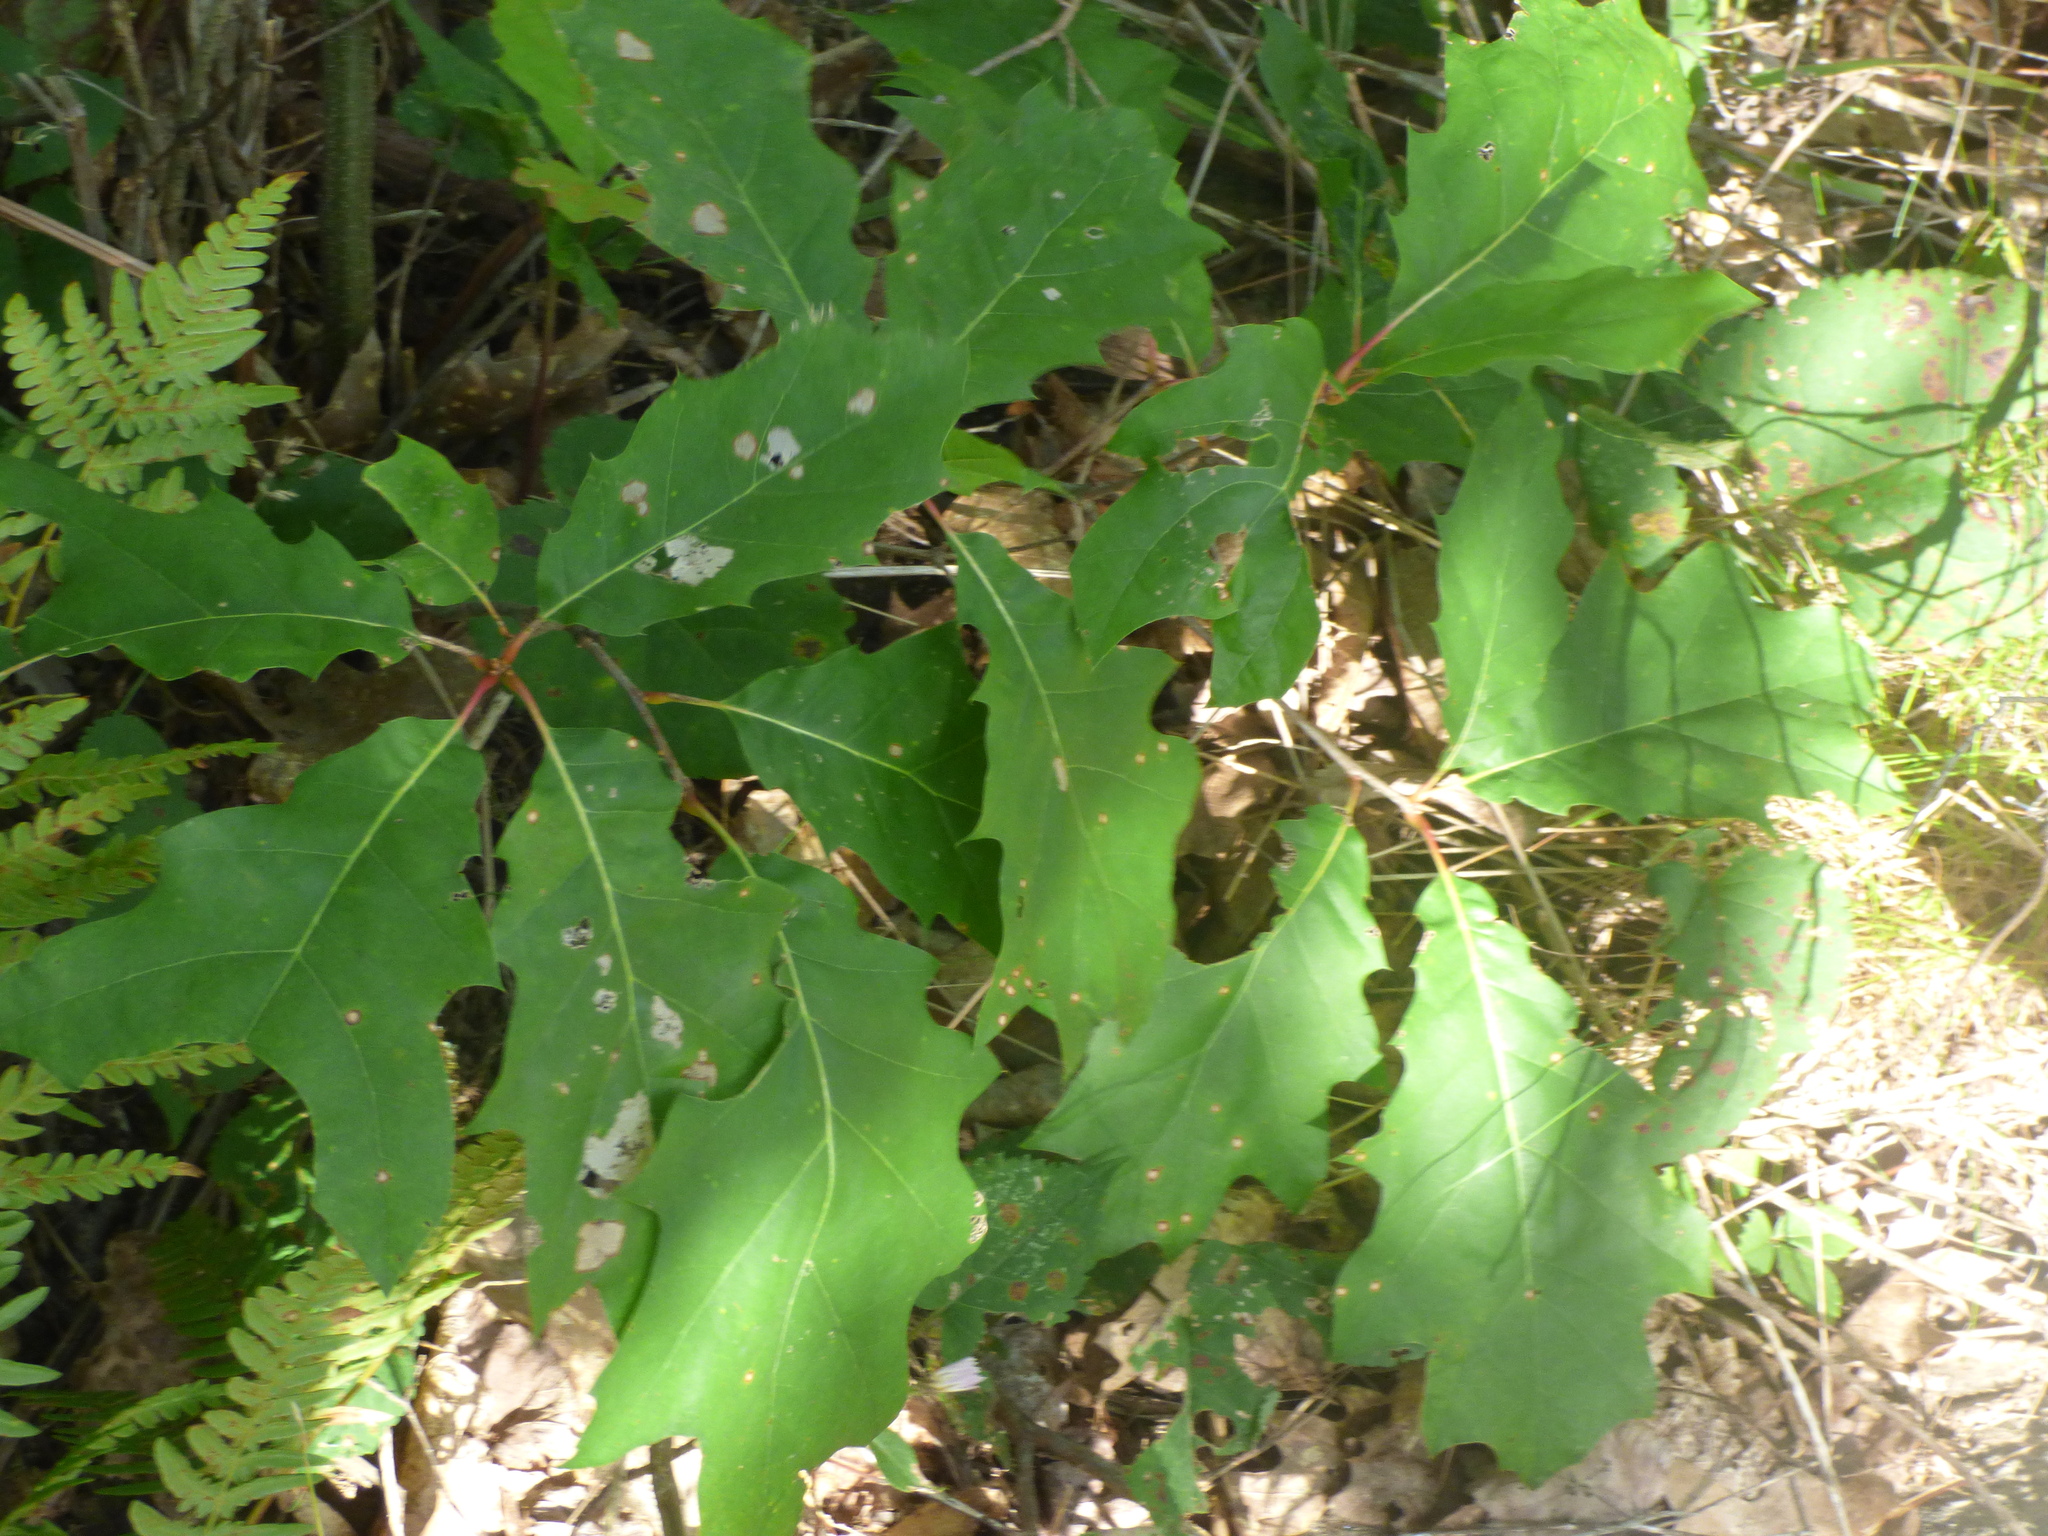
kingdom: Plantae
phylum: Tracheophyta
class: Magnoliopsida
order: Fagales
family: Fagaceae
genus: Quercus
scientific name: Quercus rubra
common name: Red oak
